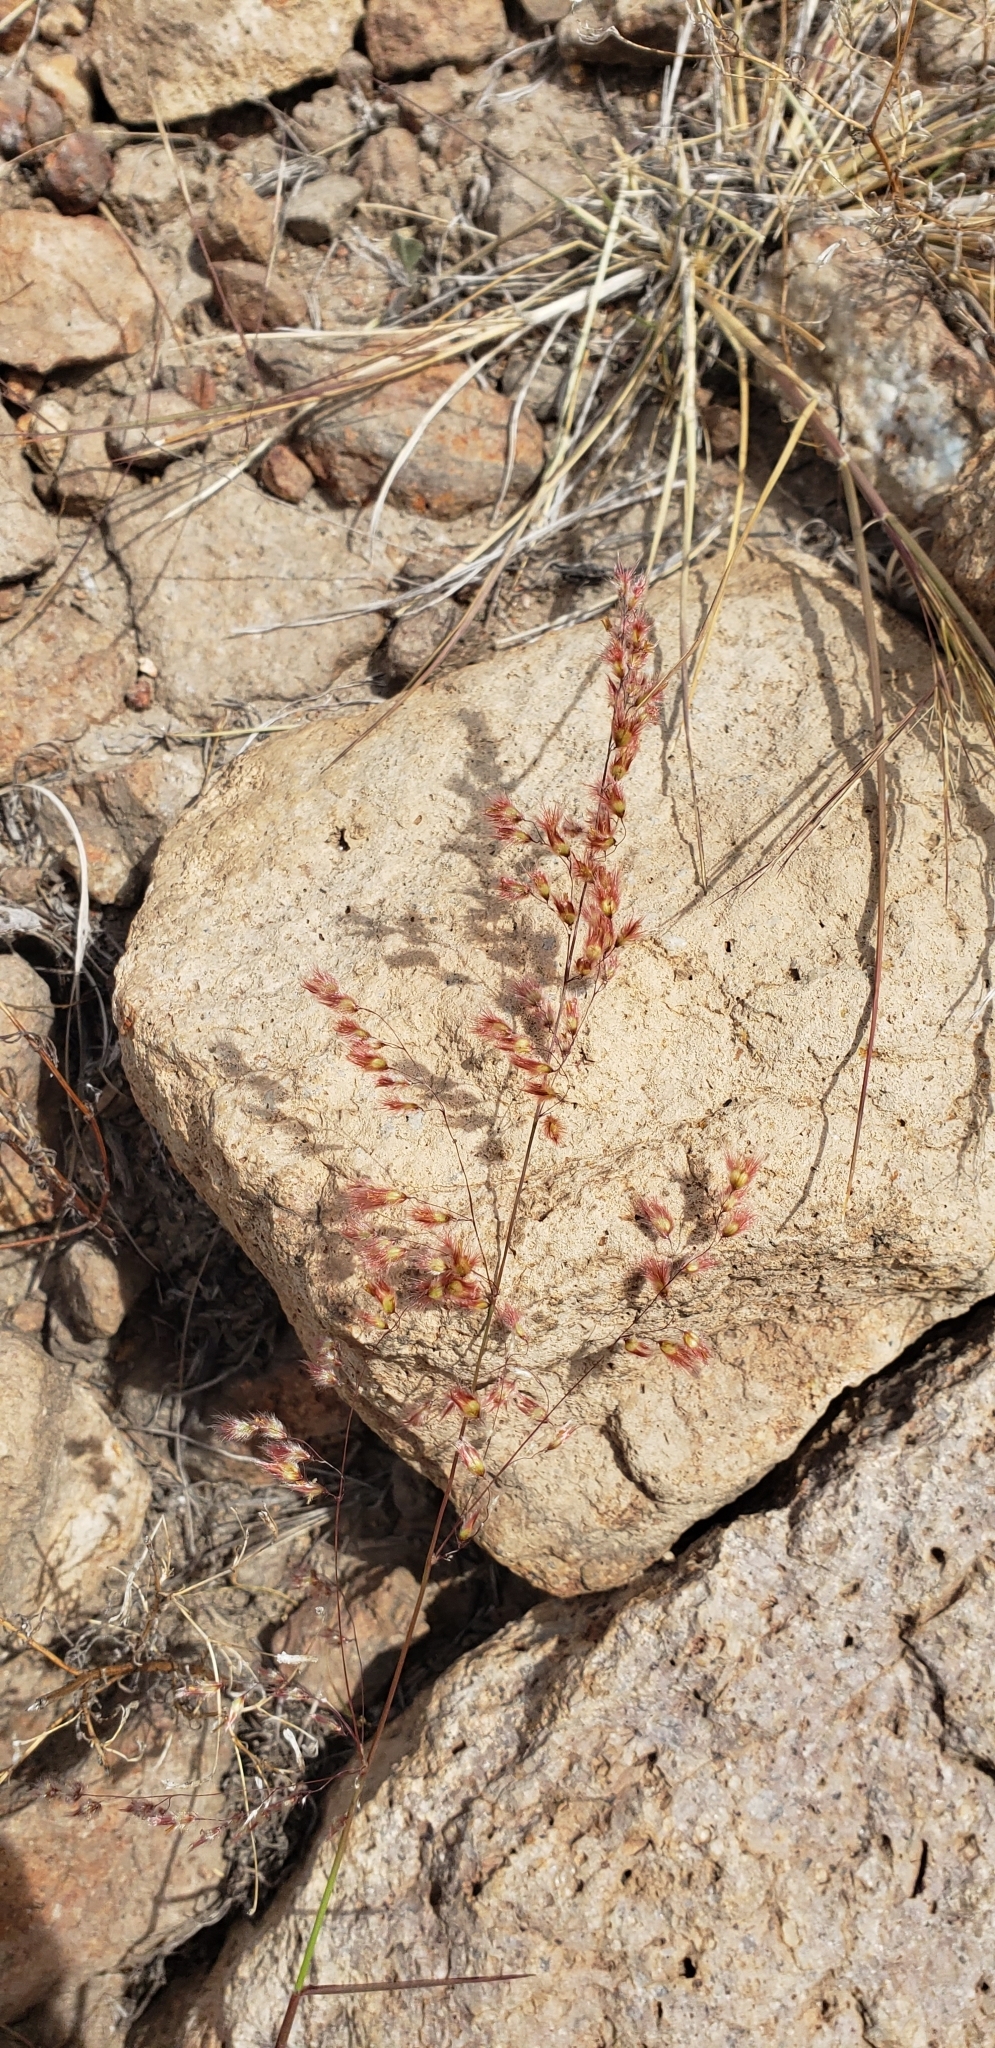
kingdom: Plantae
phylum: Tracheophyta
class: Liliopsida
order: Poales
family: Poaceae
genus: Melinis
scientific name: Melinis repens
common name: Rose natal grass
